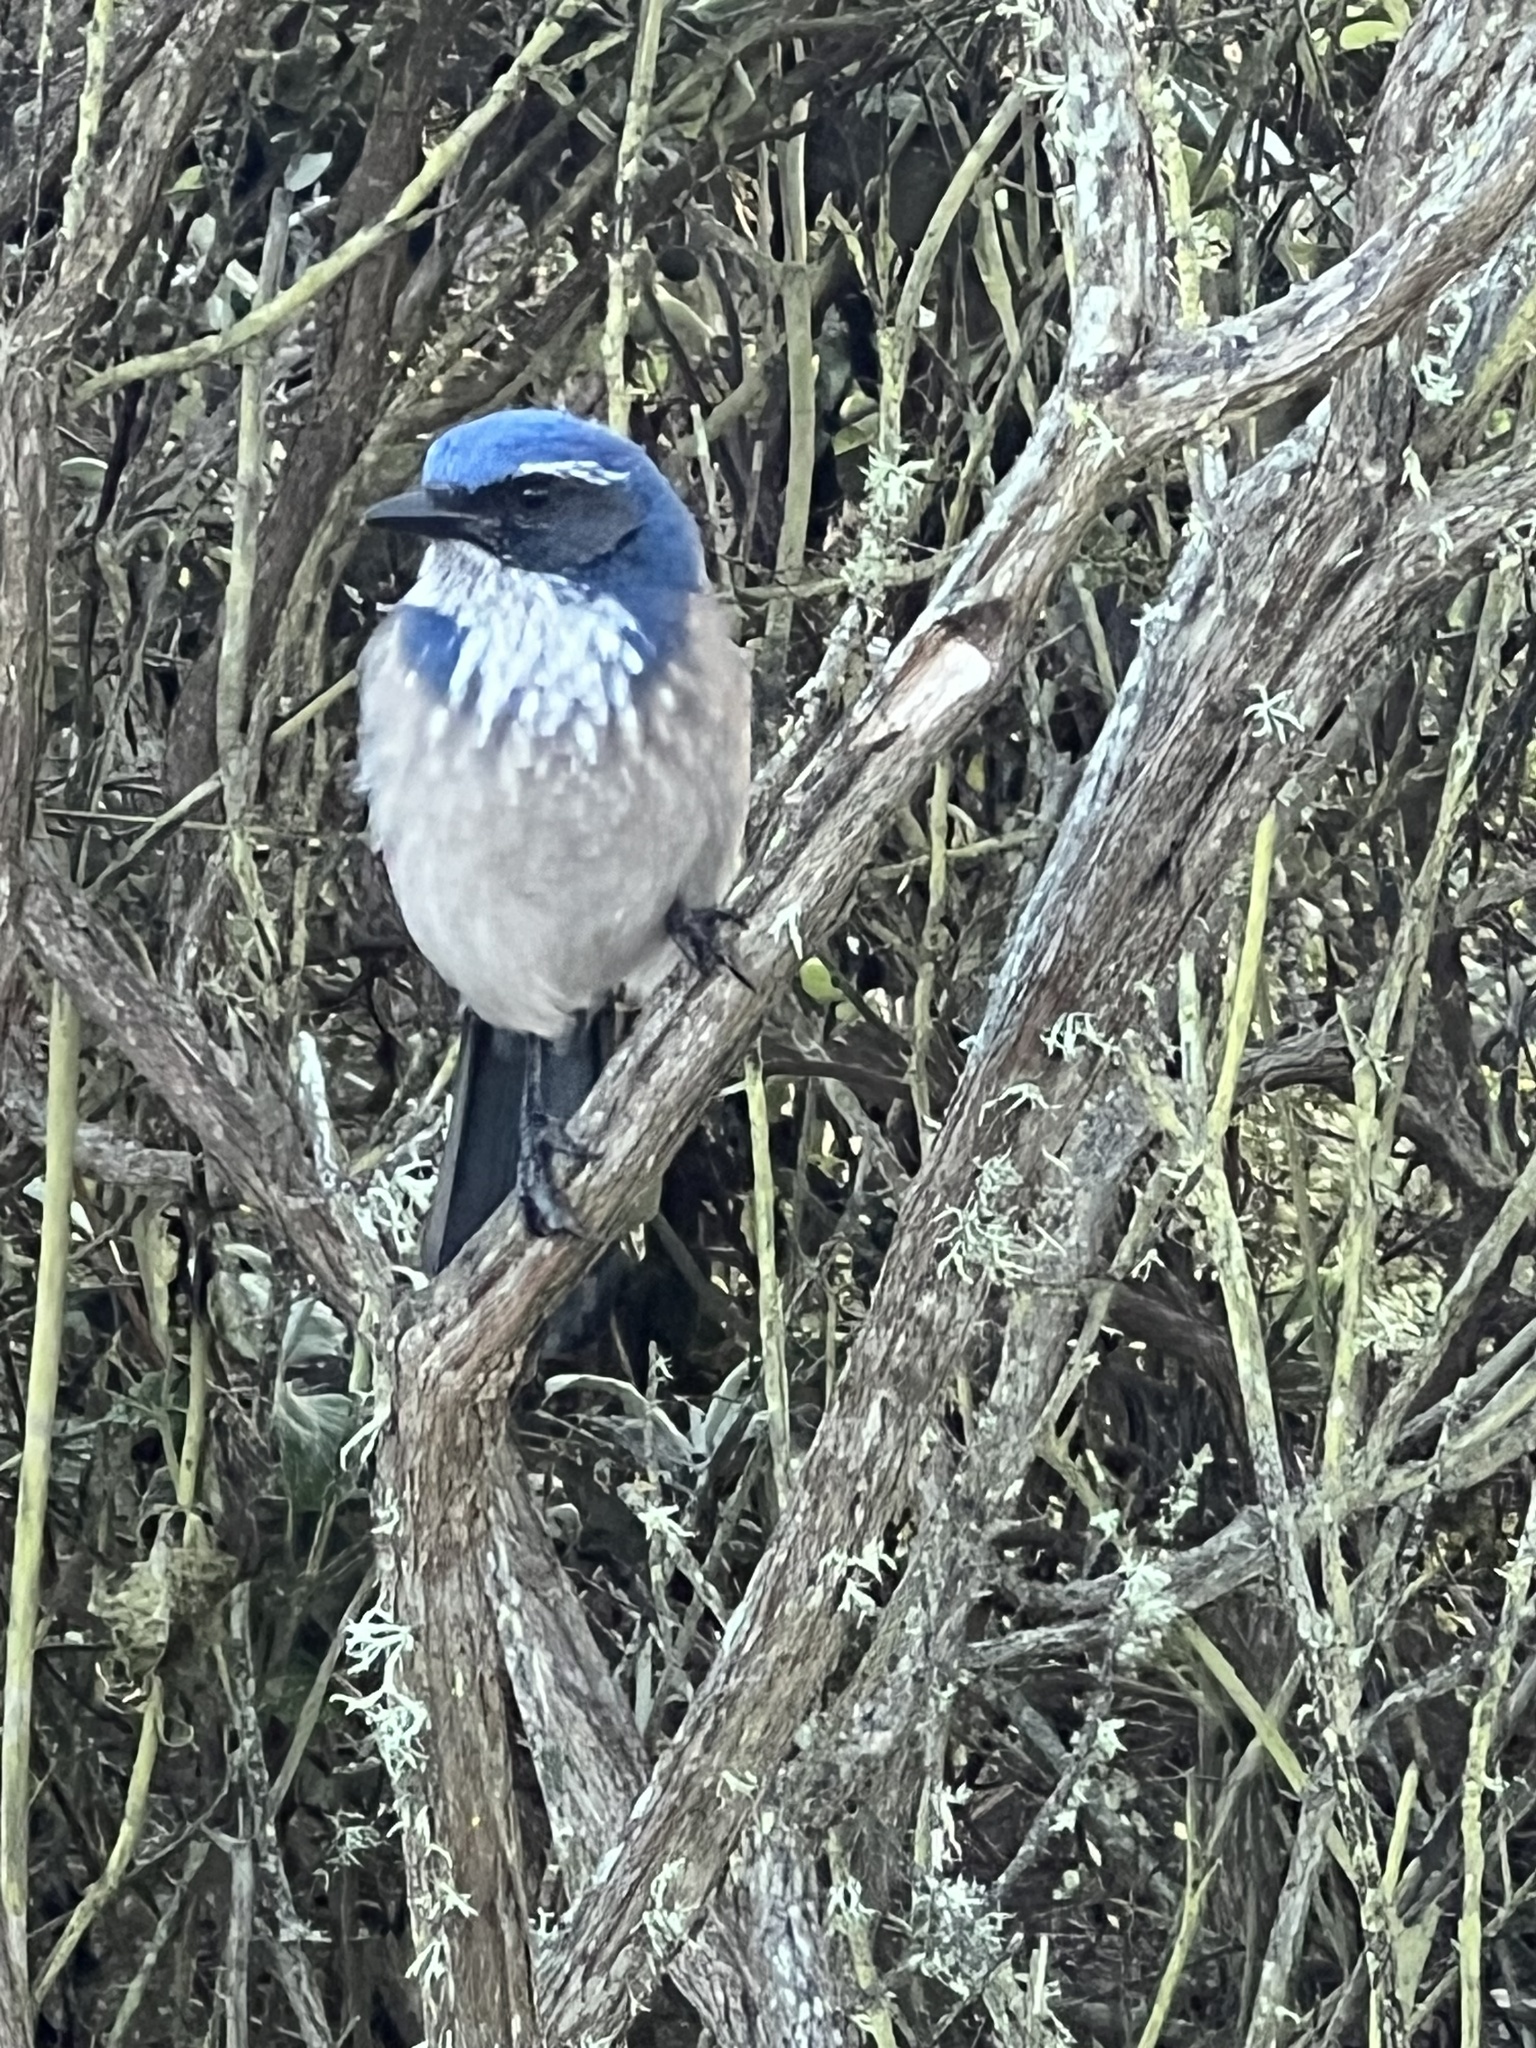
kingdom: Animalia
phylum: Chordata
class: Aves
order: Passeriformes
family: Corvidae
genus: Aphelocoma
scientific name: Aphelocoma californica
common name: California scrub-jay
